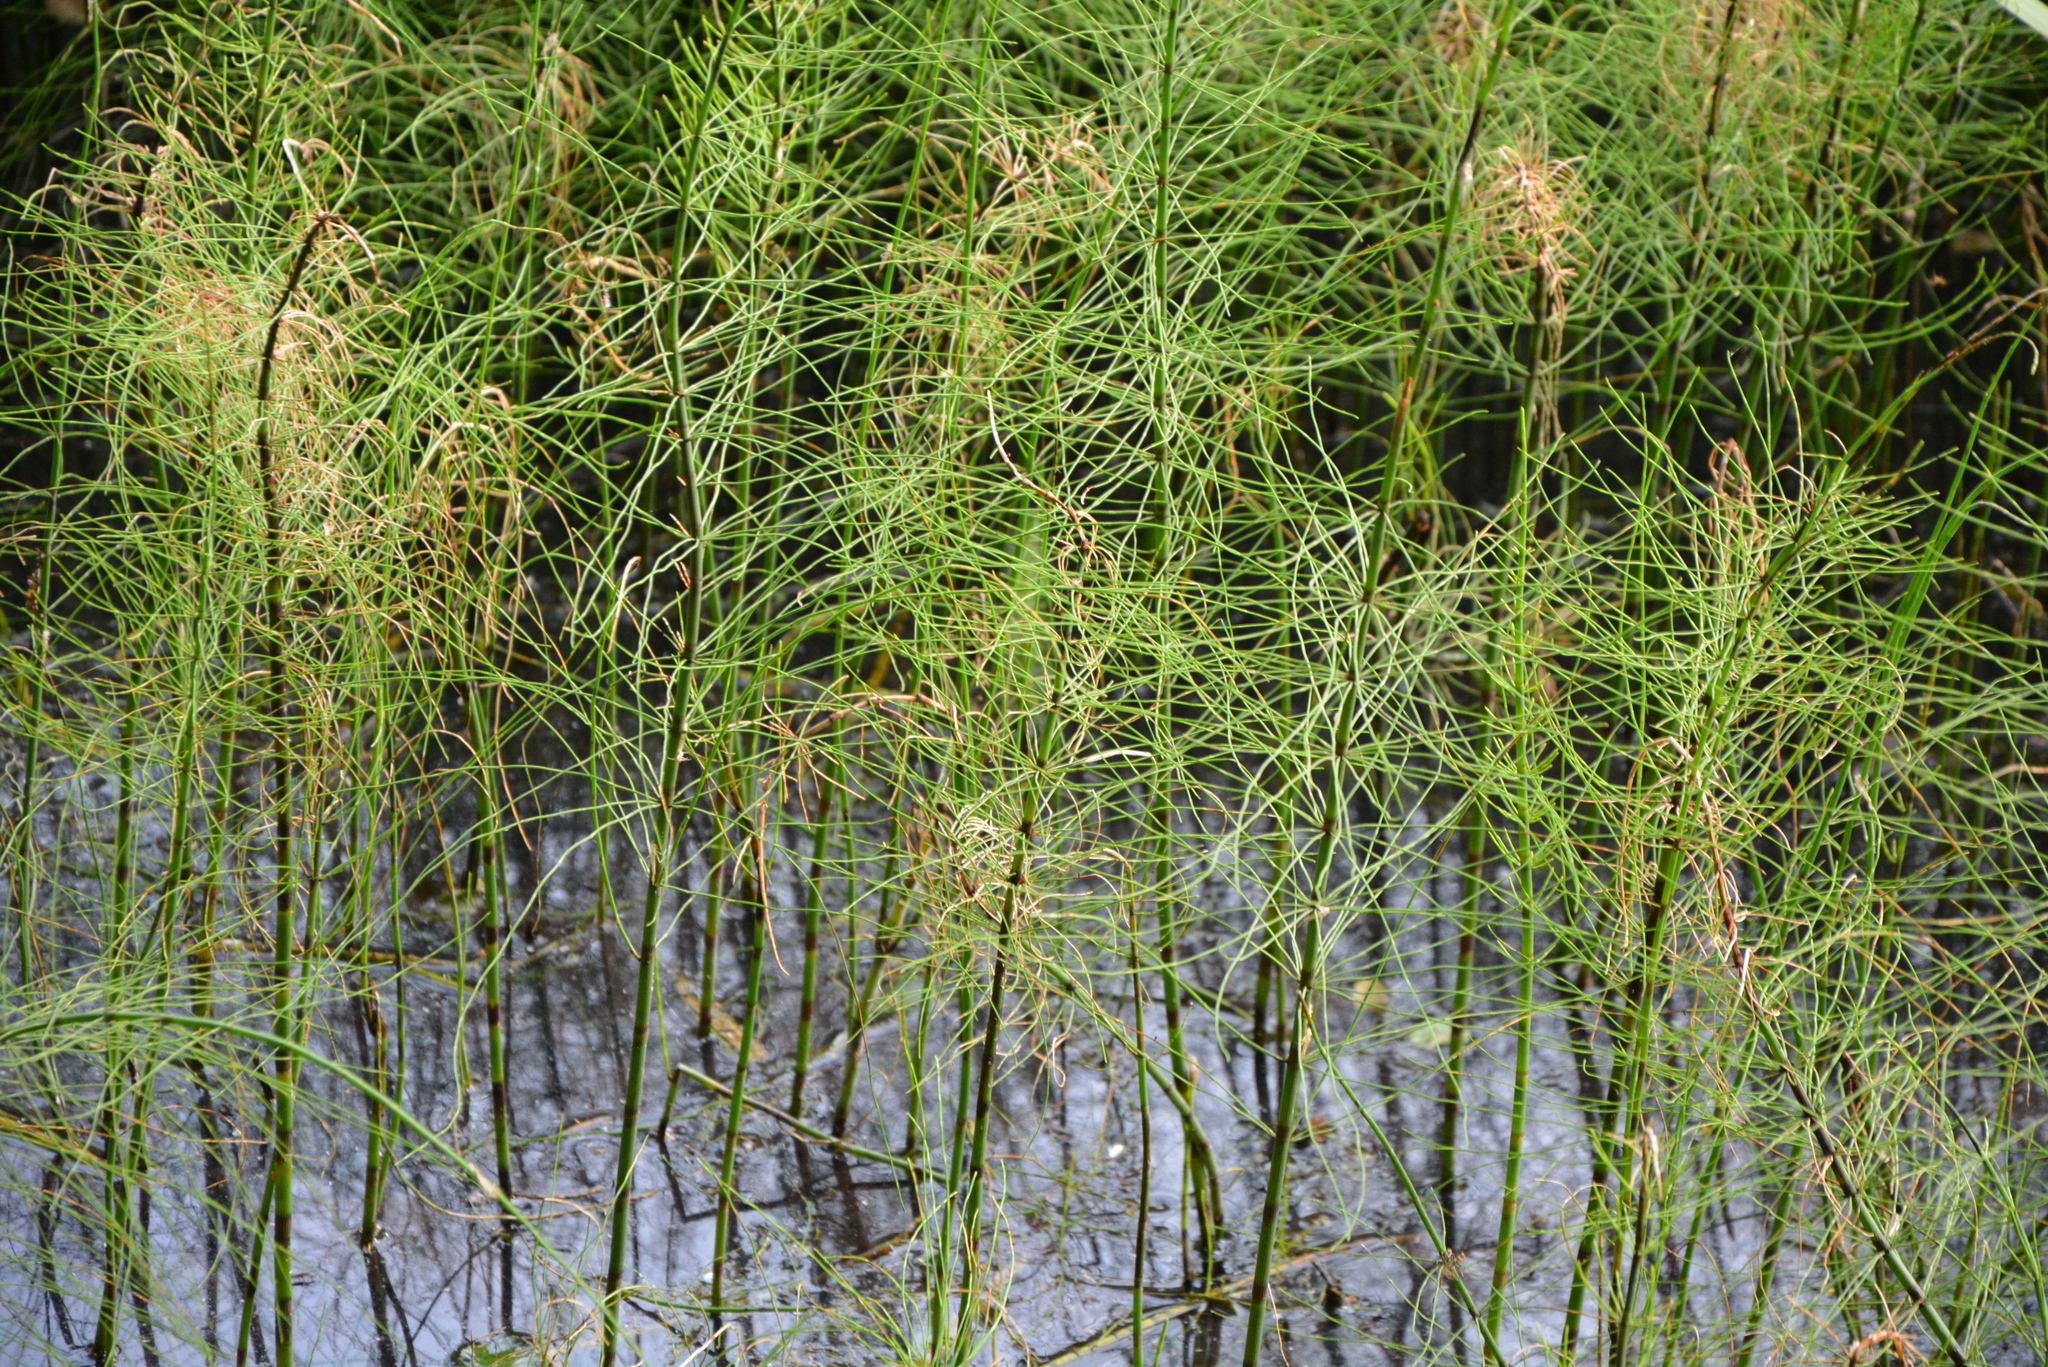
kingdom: Plantae
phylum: Tracheophyta
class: Polypodiopsida
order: Equisetales
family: Equisetaceae
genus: Equisetum
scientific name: Equisetum fluviatile
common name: Water horsetail
